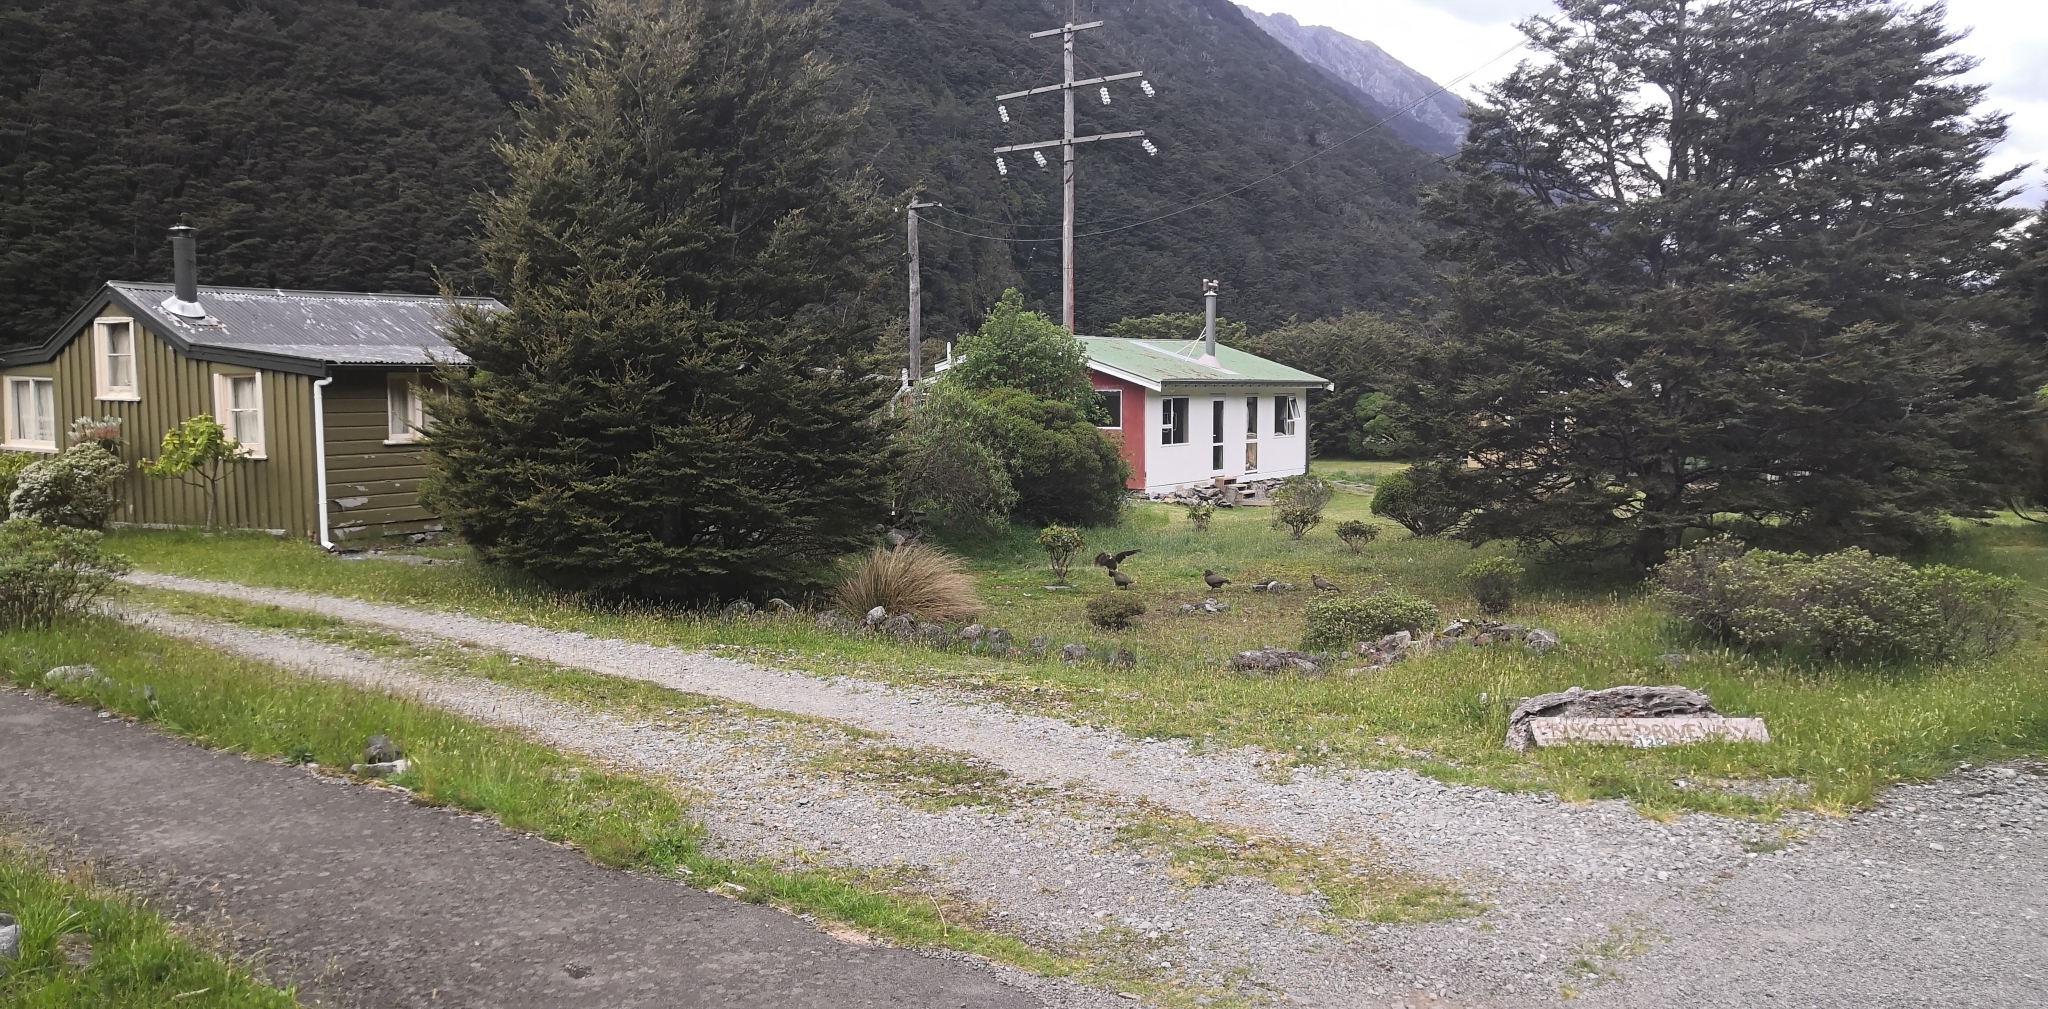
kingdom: Animalia
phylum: Chordata
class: Aves
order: Psittaciformes
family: Psittacidae
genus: Nestor
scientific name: Nestor notabilis
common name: Kea
